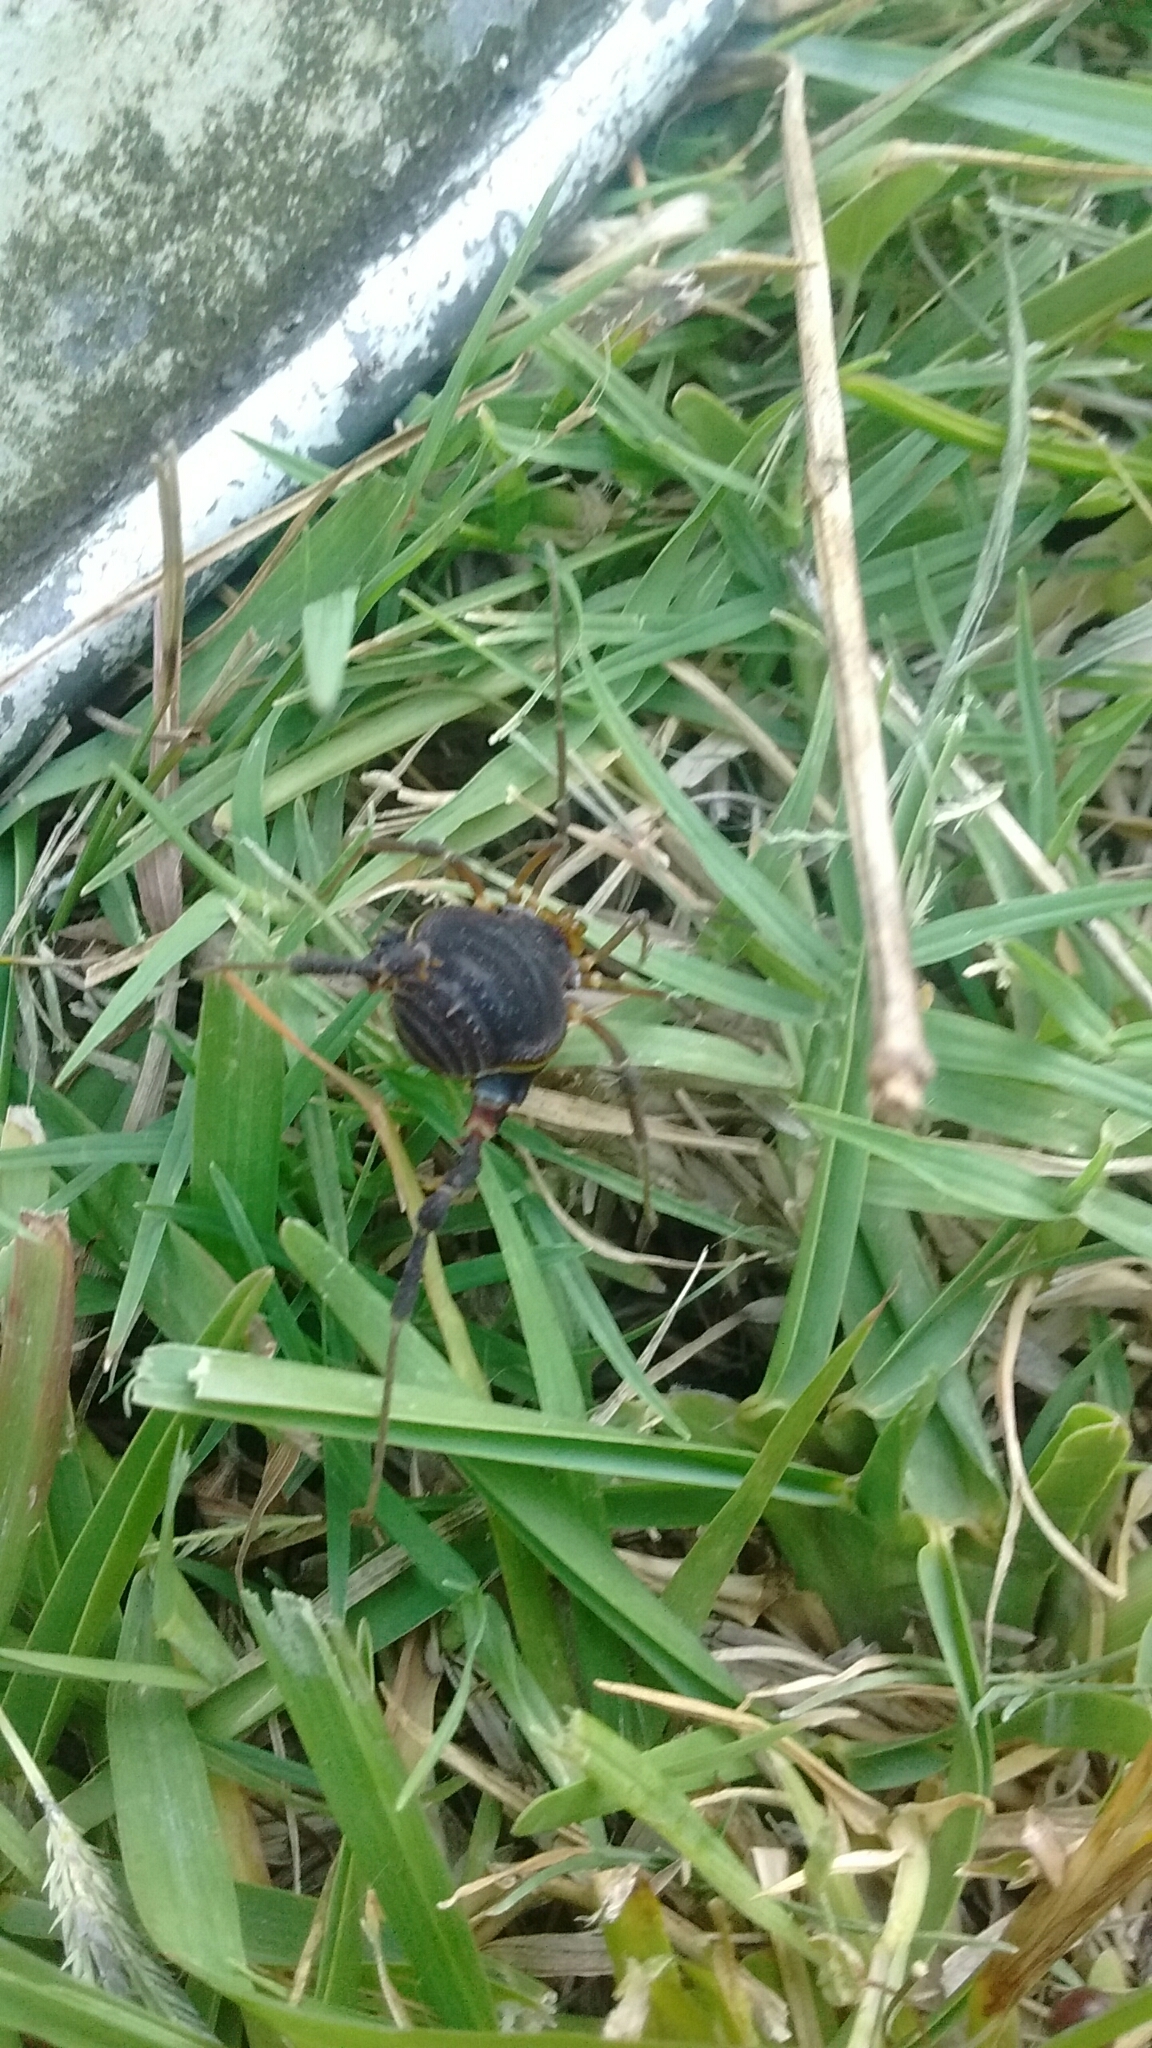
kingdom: Animalia
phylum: Arthropoda
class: Arachnida
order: Opiliones
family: Gonyleptidae
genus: Acanthopachylus
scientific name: Acanthopachylus robustus
